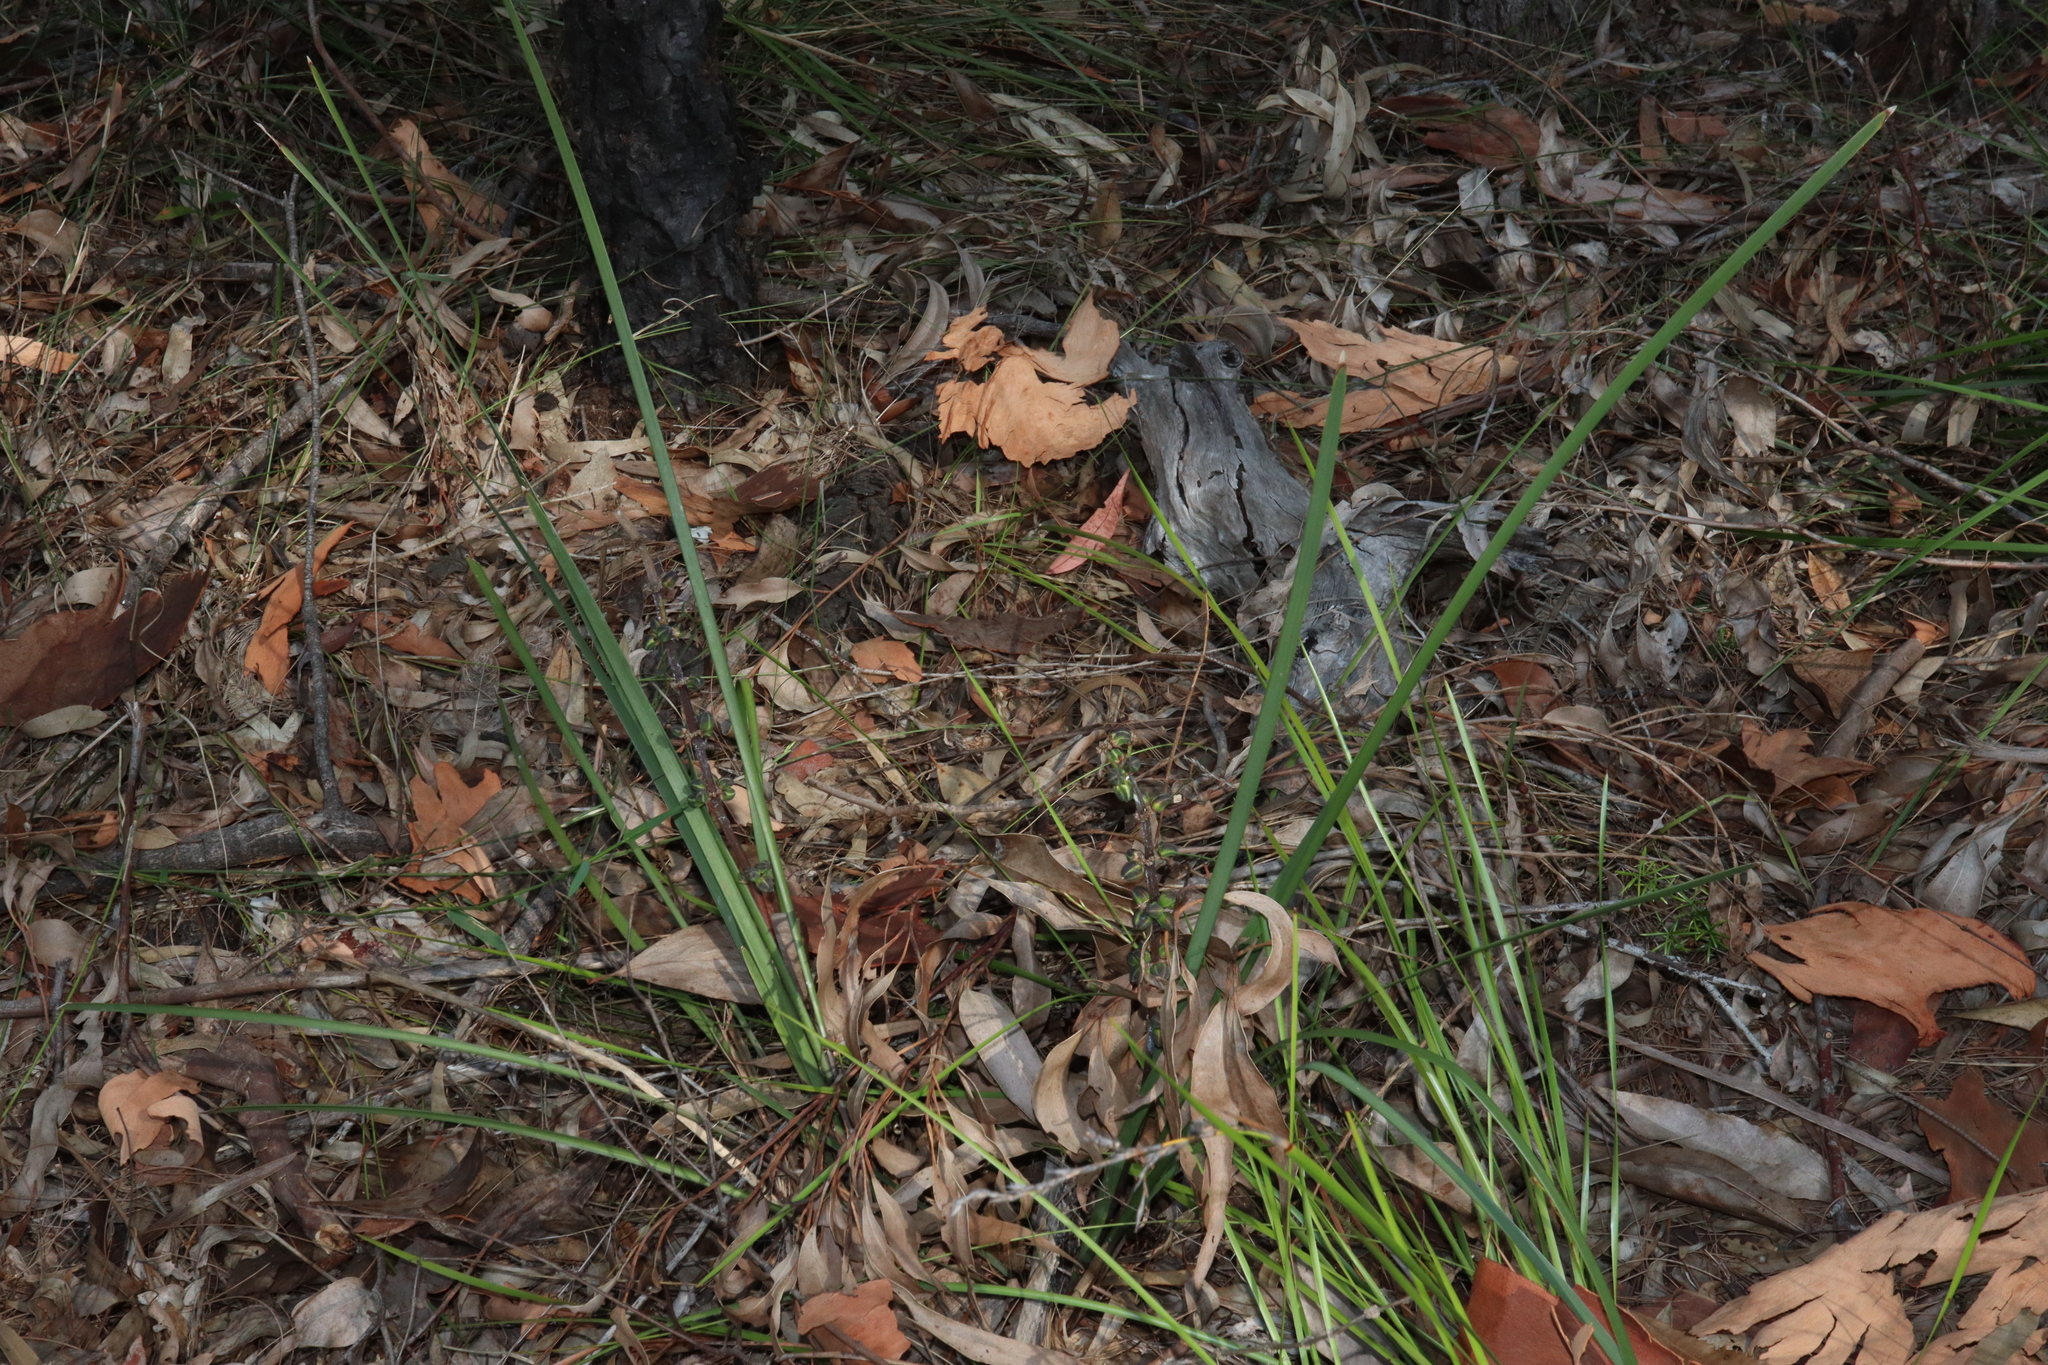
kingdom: Plantae
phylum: Tracheophyta
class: Liliopsida
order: Asparagales
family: Asparagaceae
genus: Lomandra
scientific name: Lomandra multiflora
